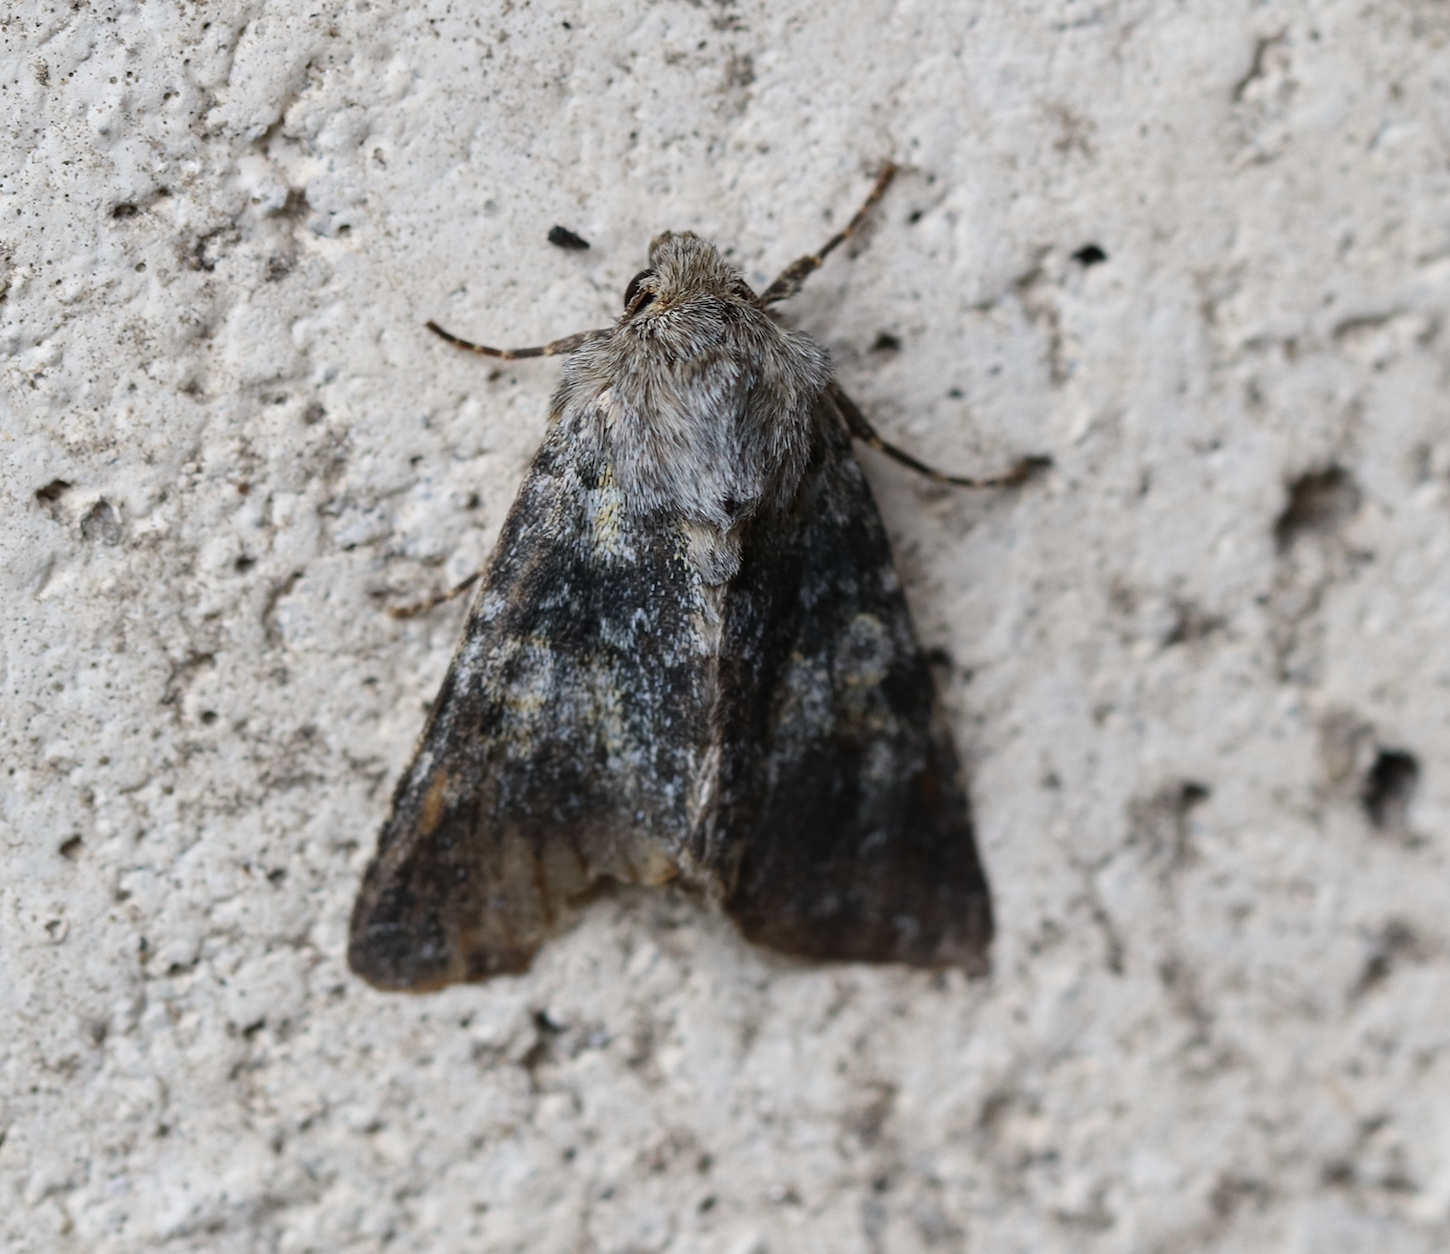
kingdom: Animalia
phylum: Arthropoda
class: Insecta
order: Lepidoptera
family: Noctuidae
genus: Hadena
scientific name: Hadena caesia
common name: Grey
